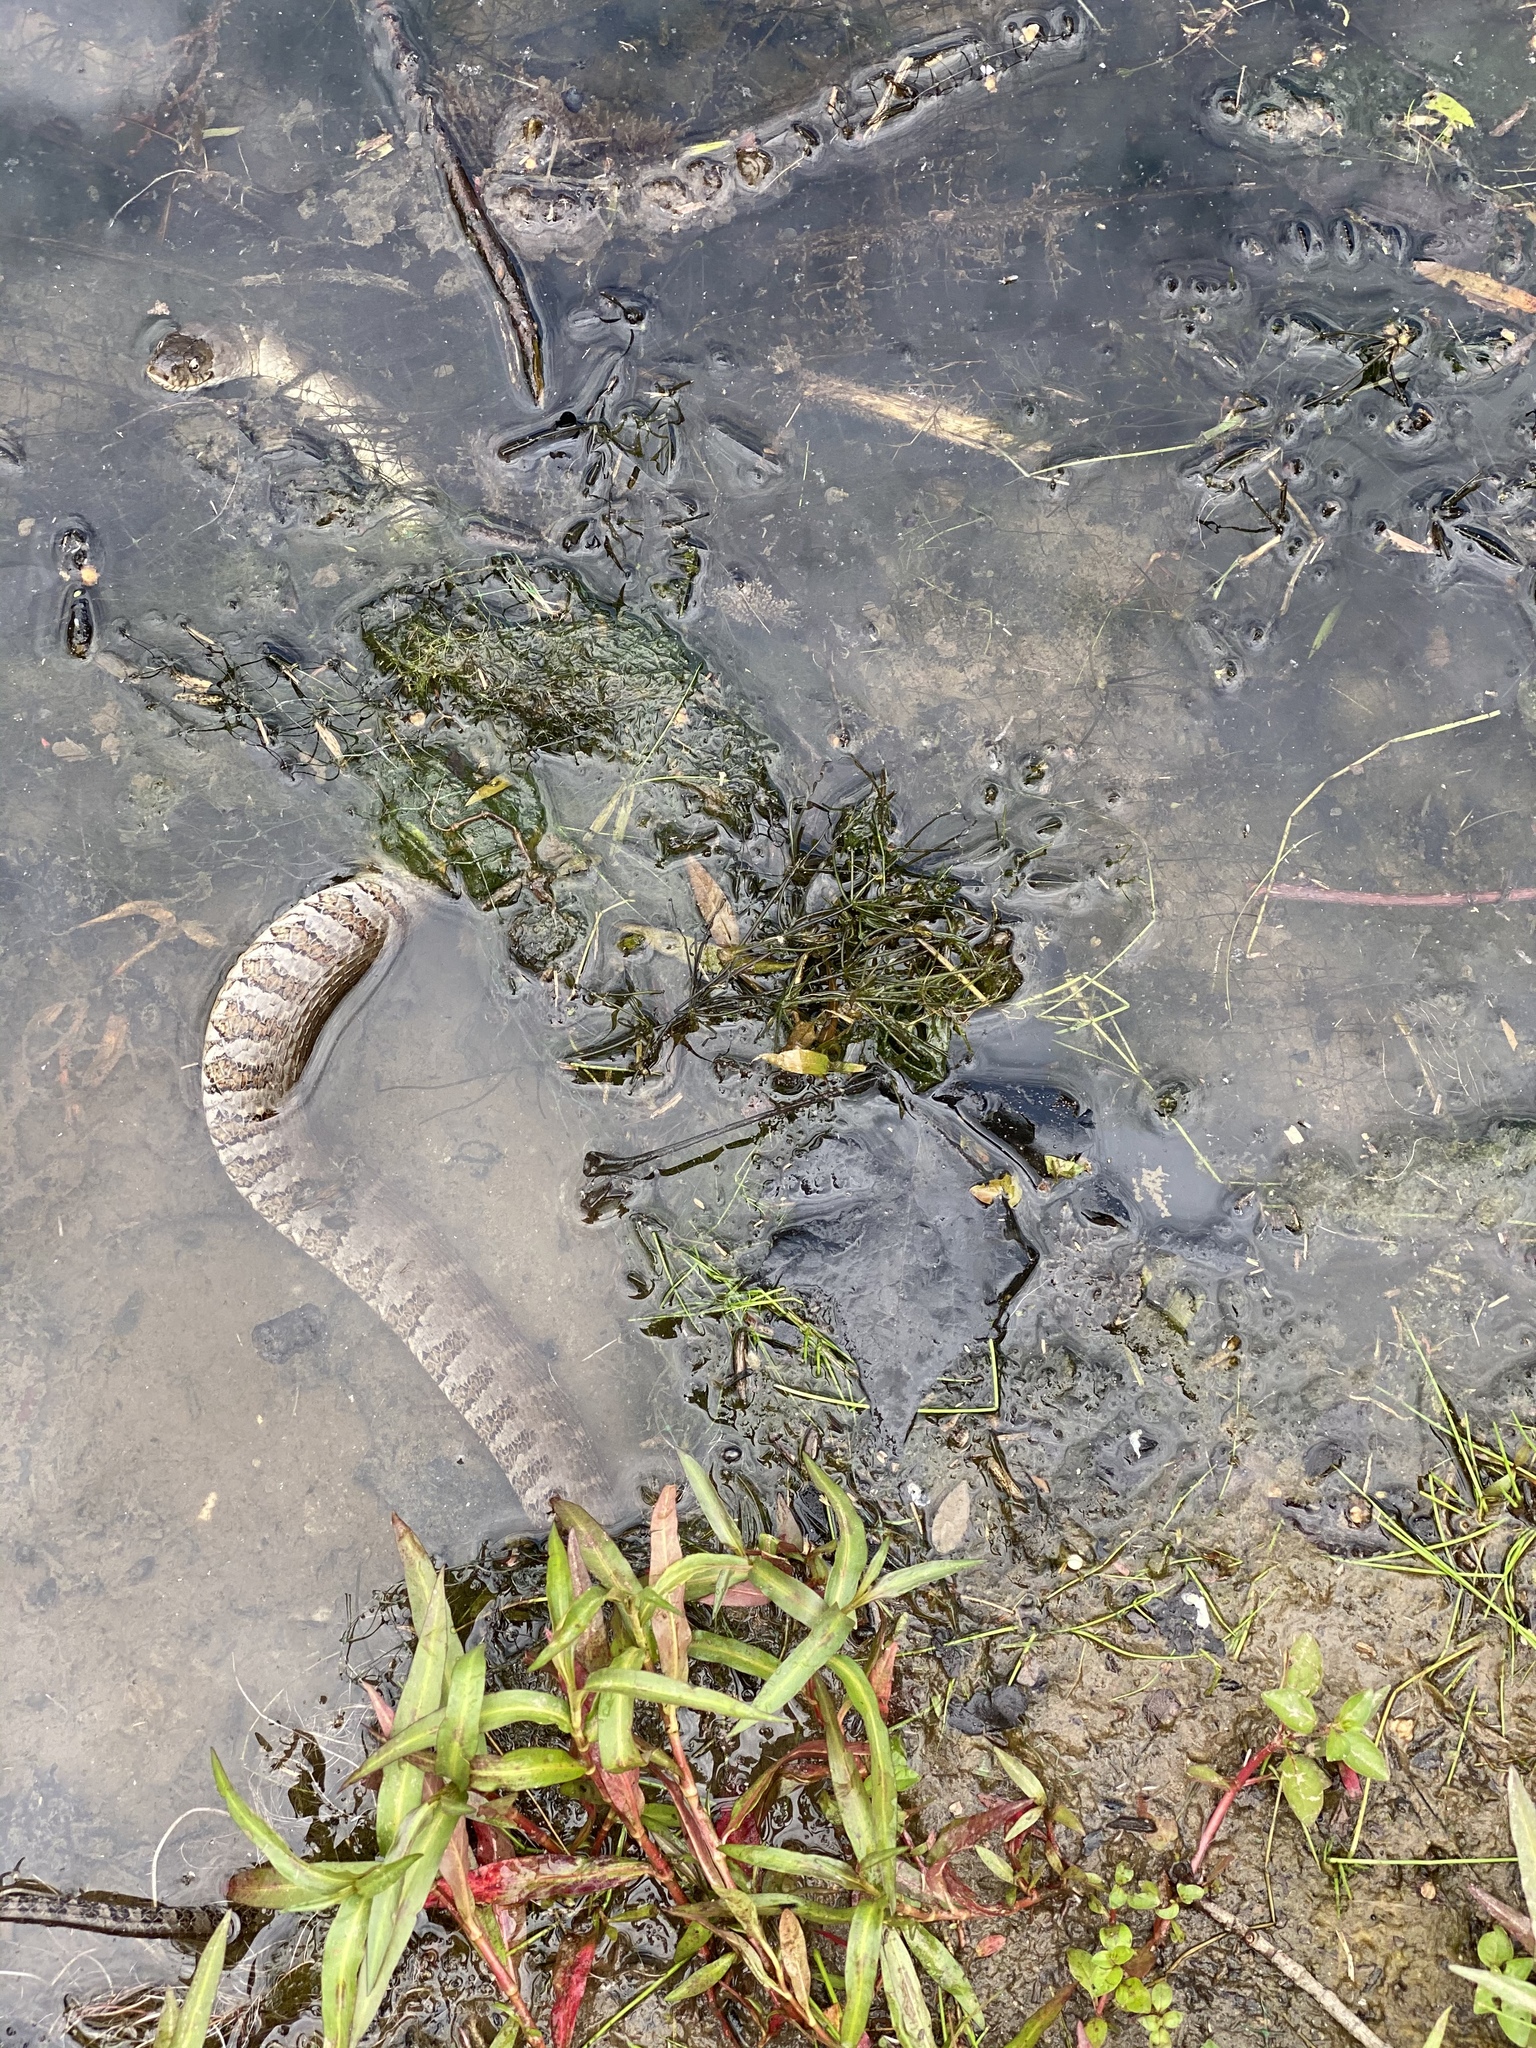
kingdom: Animalia
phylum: Chordata
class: Squamata
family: Colubridae
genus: Nerodia
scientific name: Nerodia sipedon
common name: Northern water snake
